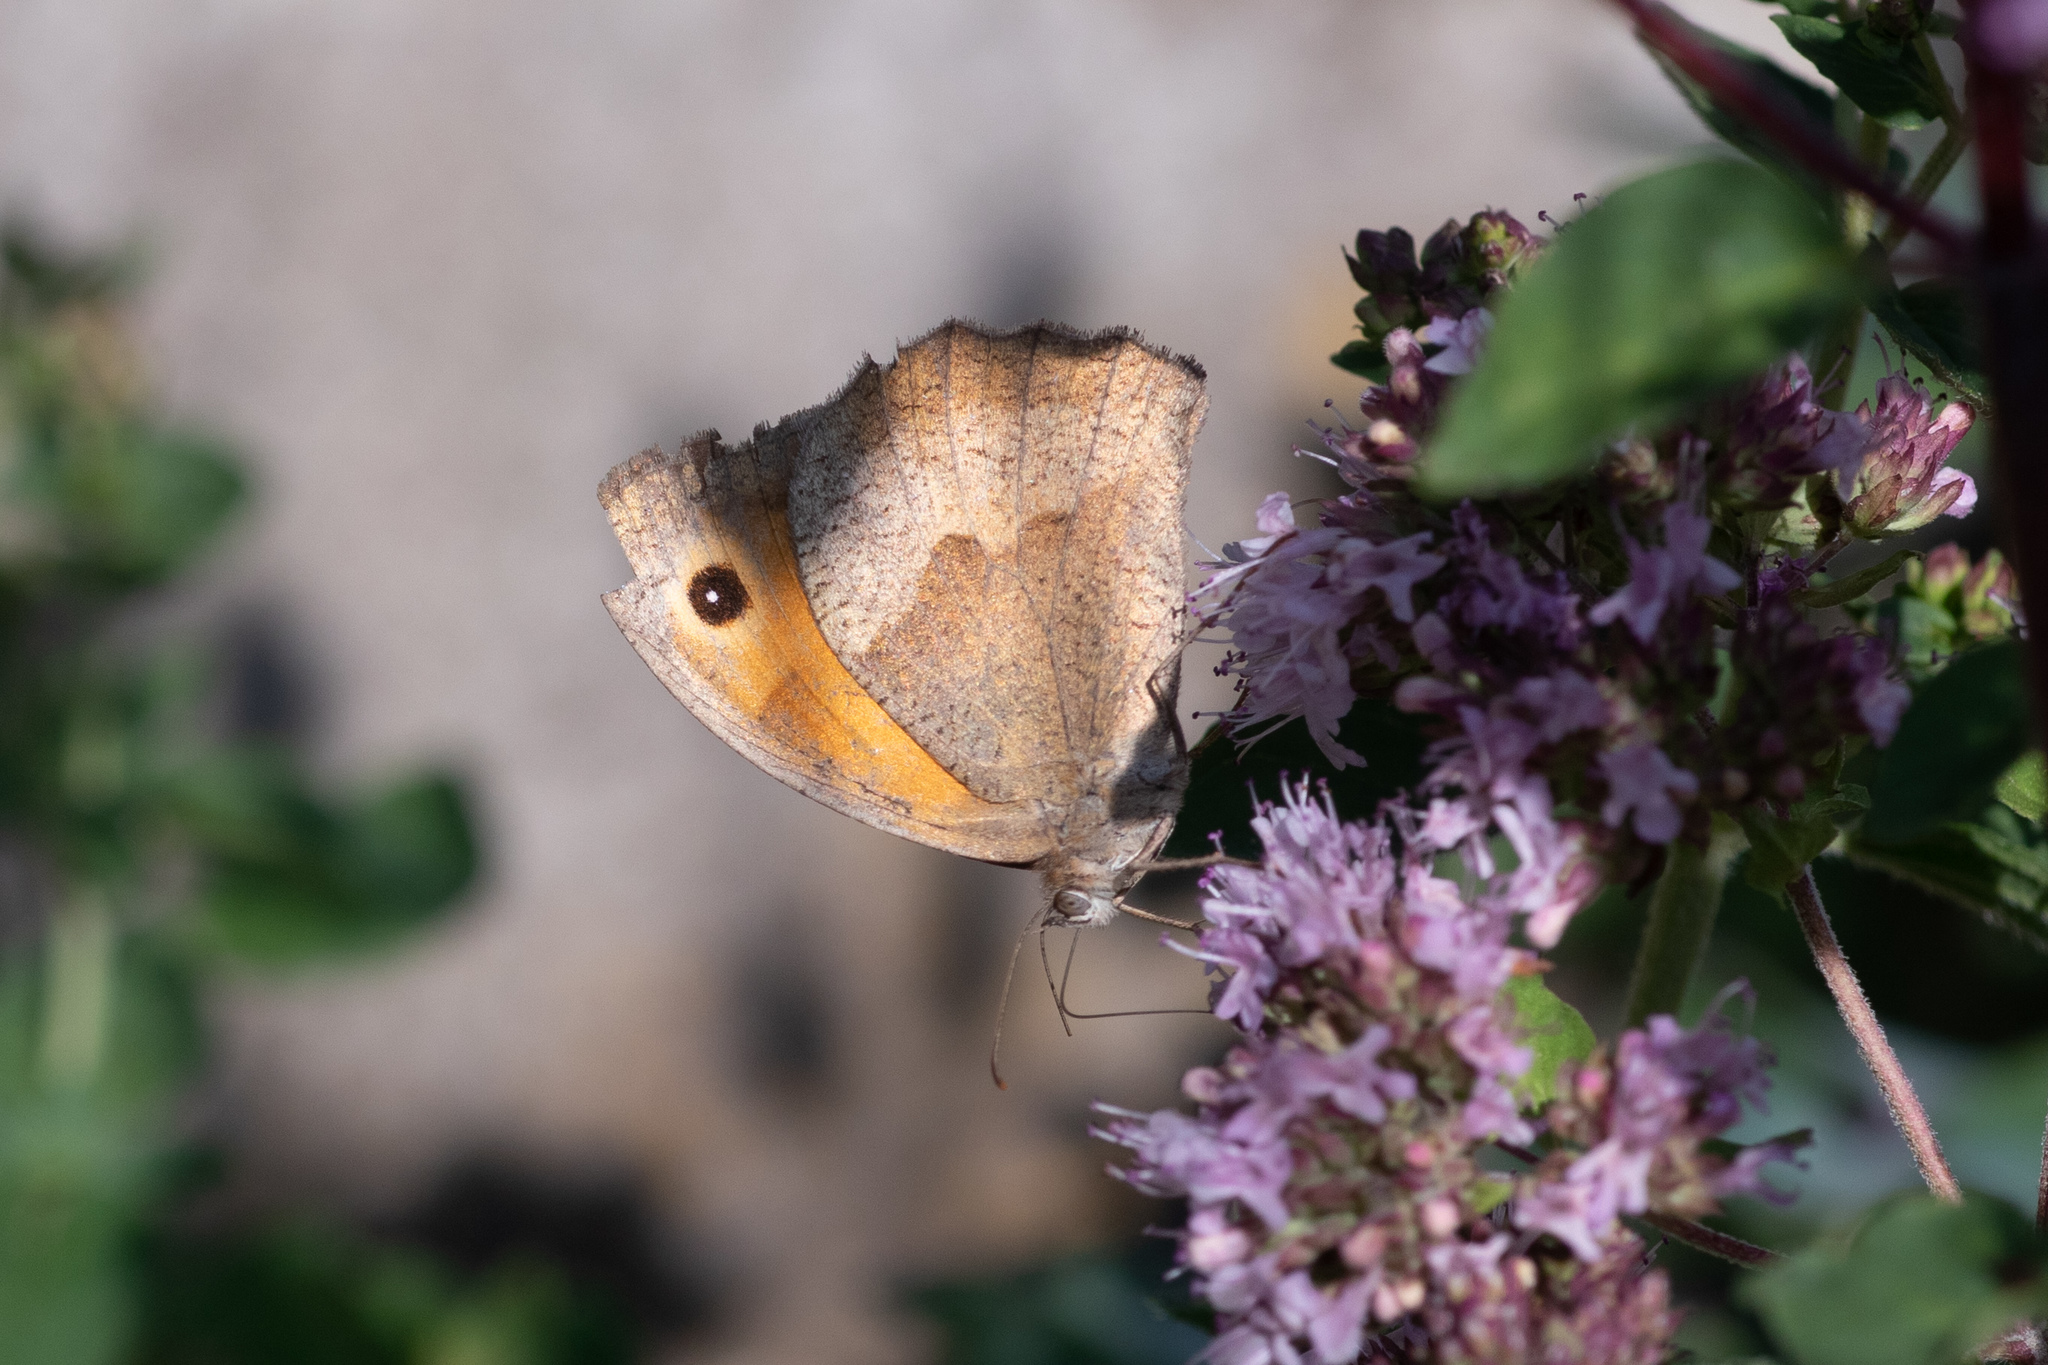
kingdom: Animalia
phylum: Arthropoda
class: Insecta
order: Lepidoptera
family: Nymphalidae
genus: Maniola
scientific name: Maniola jurtina
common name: Meadow brown
